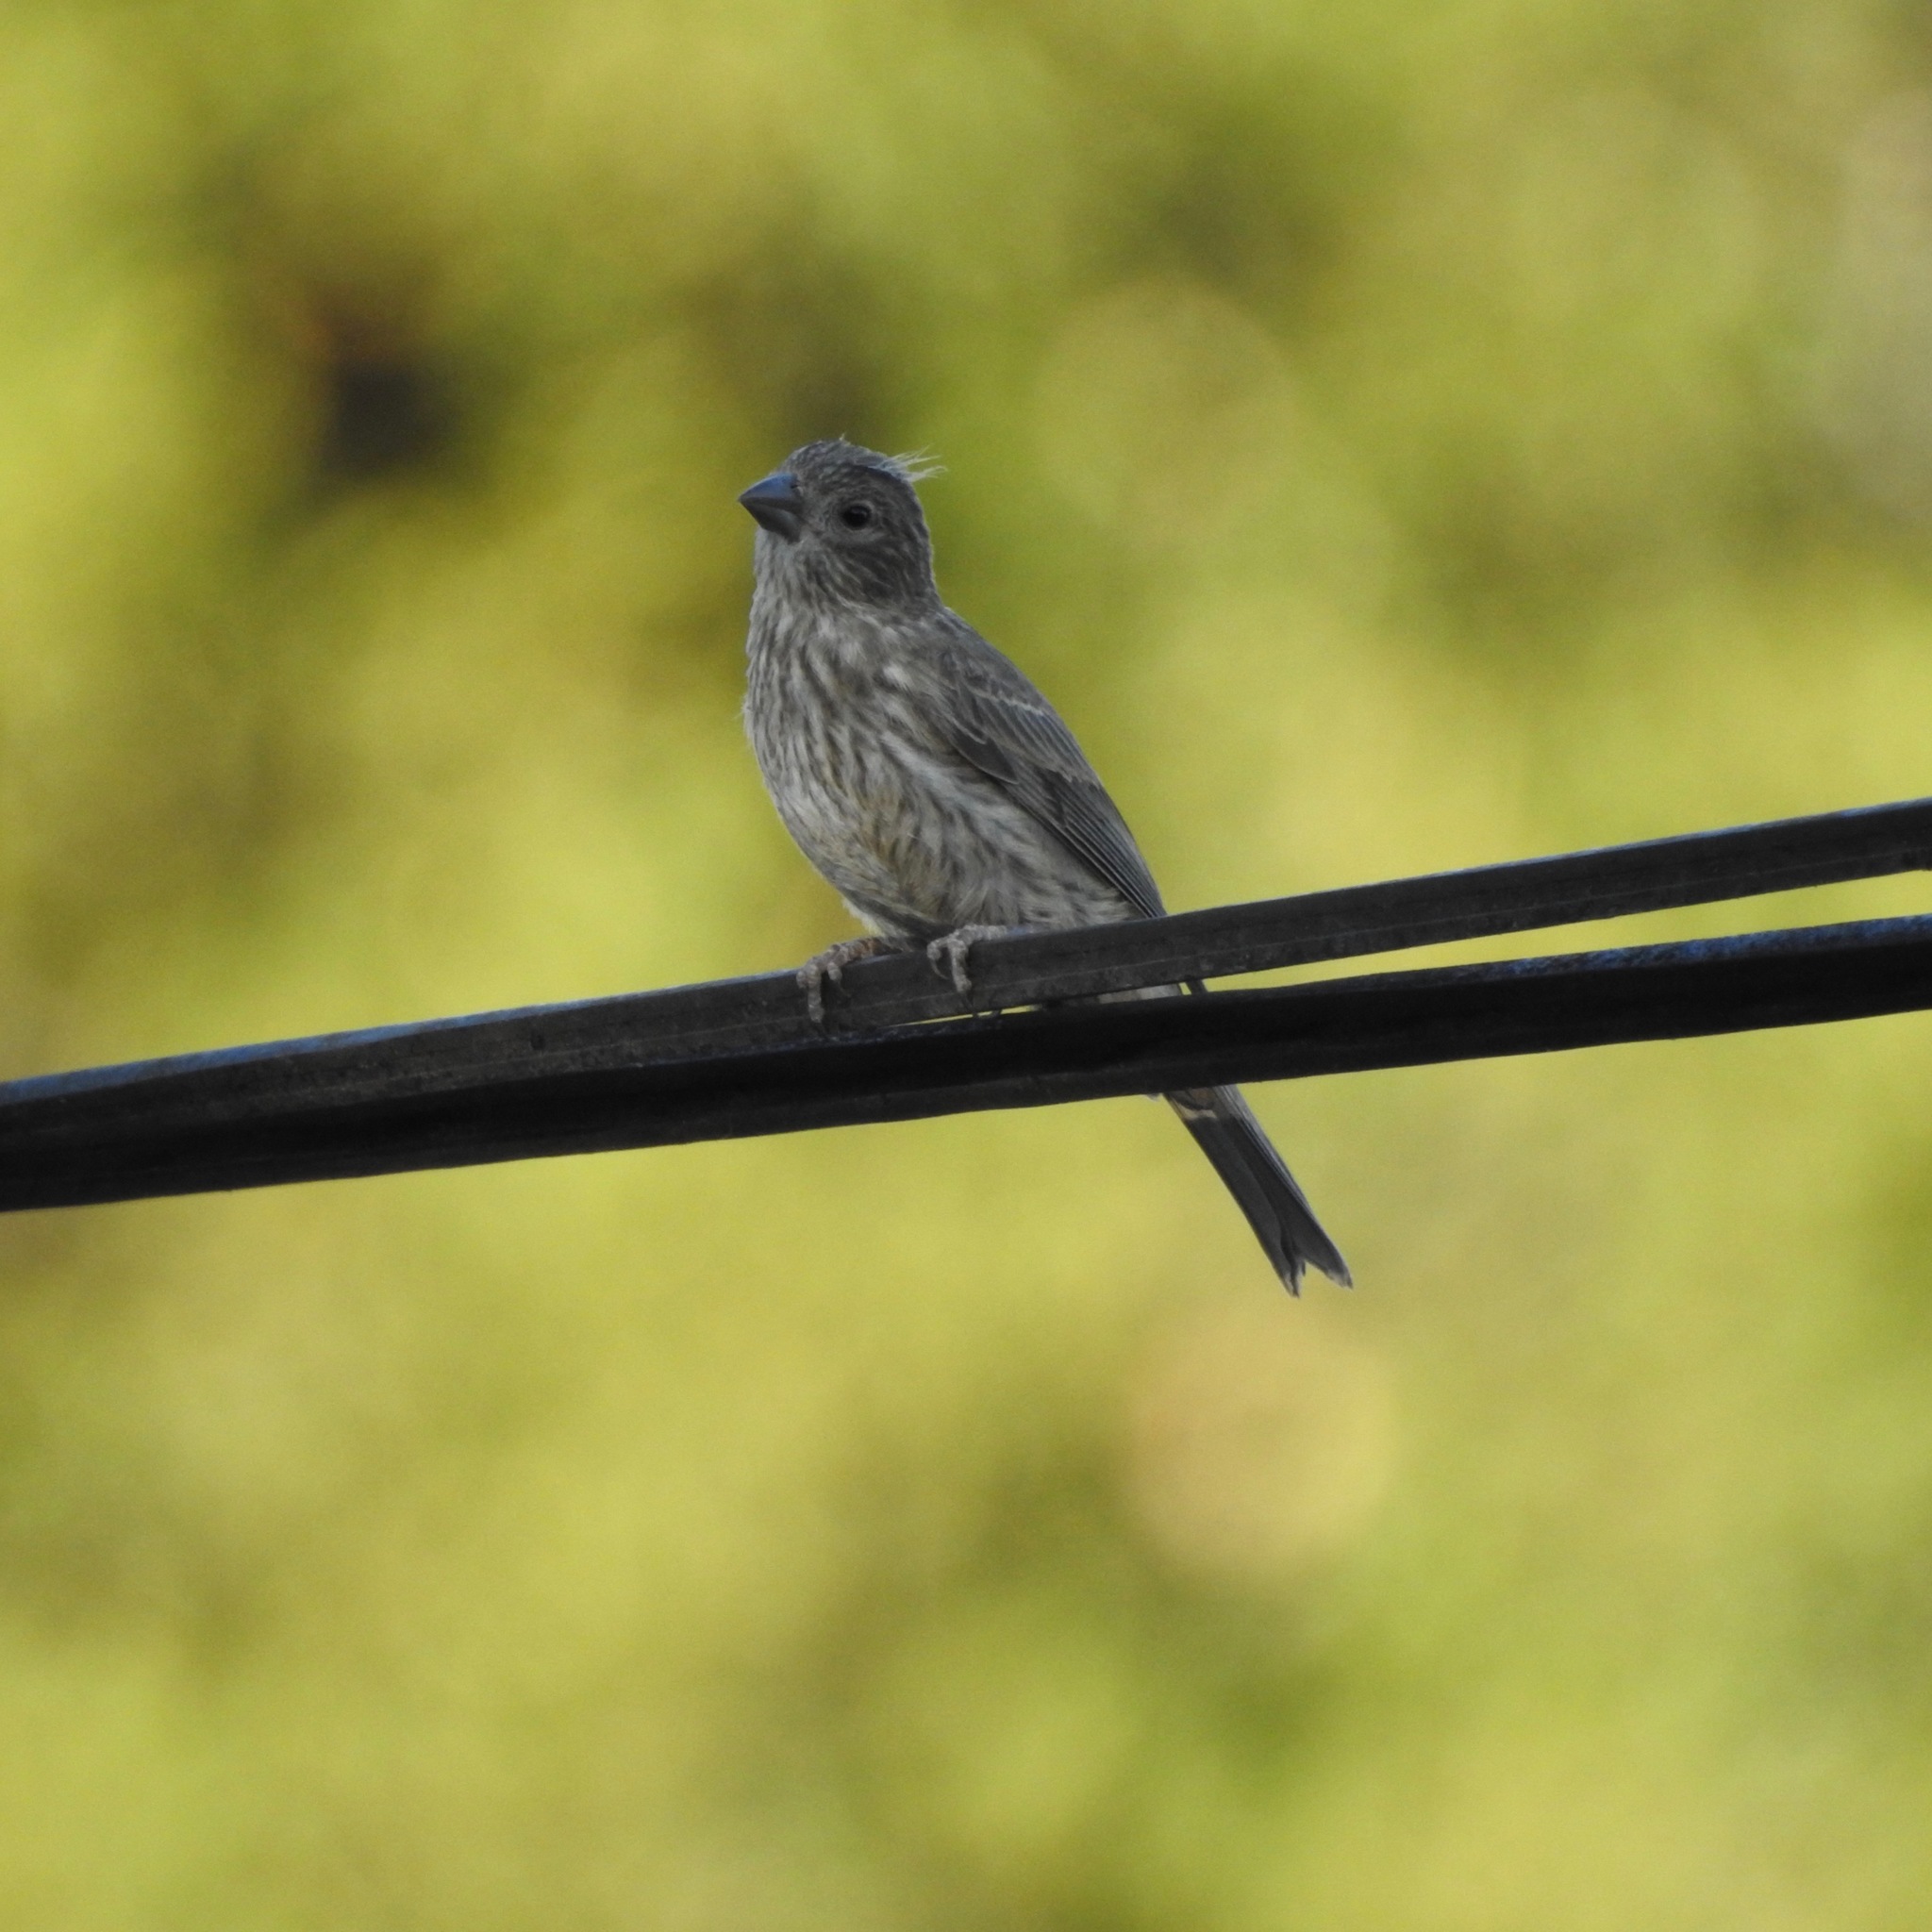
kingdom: Animalia
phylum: Chordata
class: Aves
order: Passeriformes
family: Fringillidae
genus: Haemorhous
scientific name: Haemorhous mexicanus
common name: House finch
